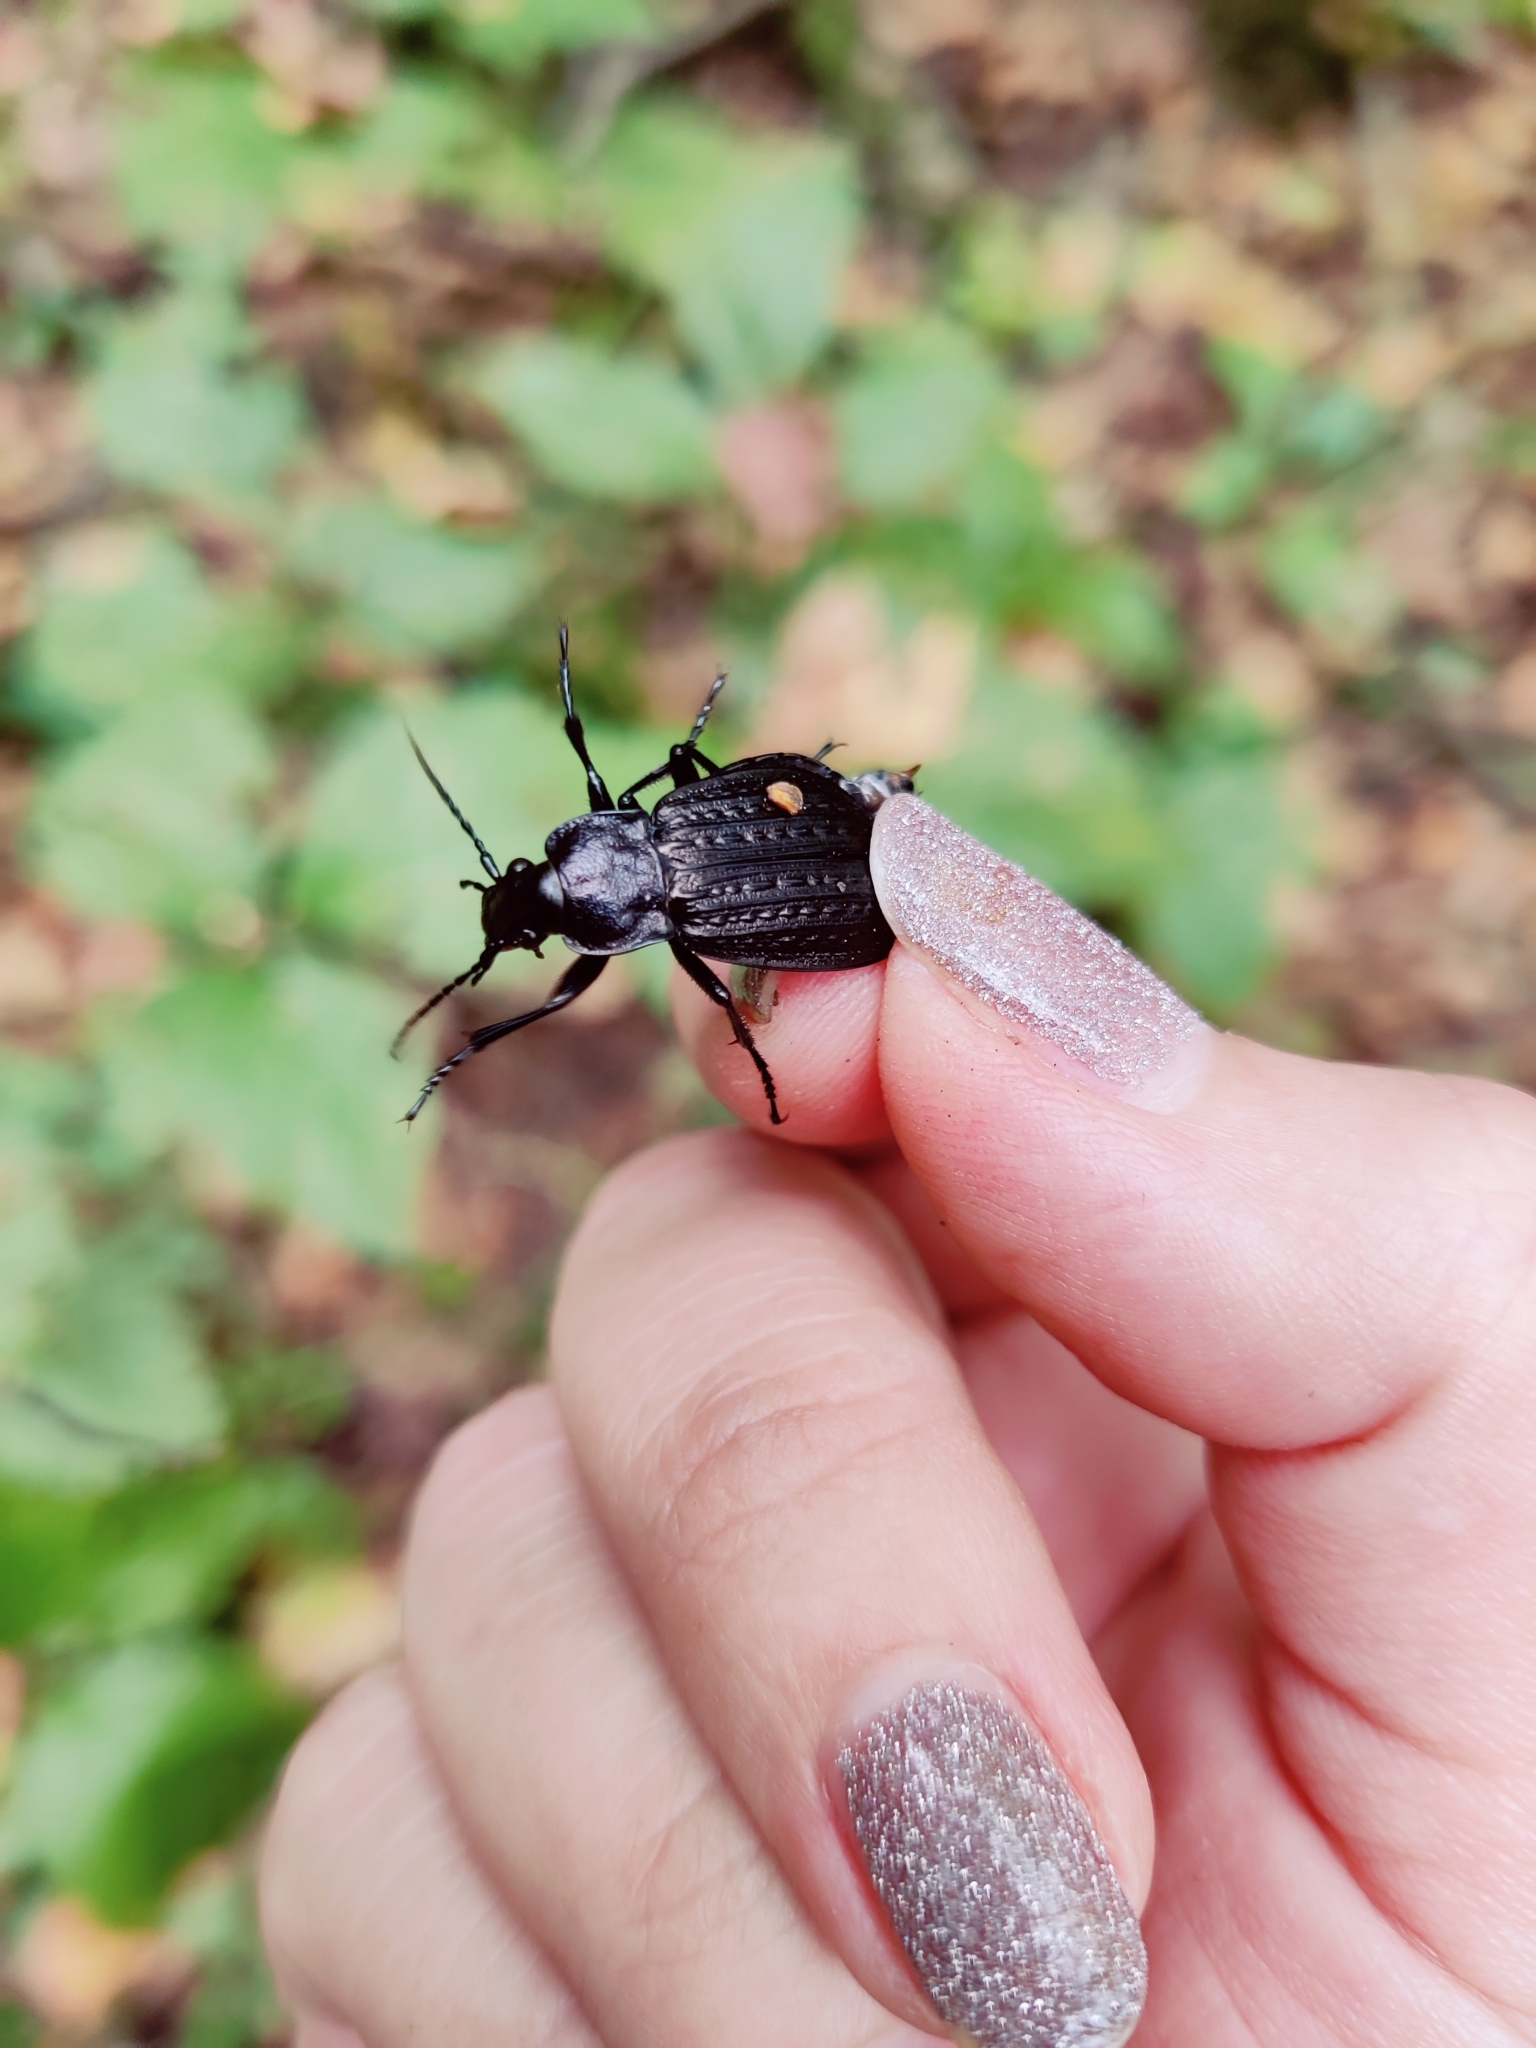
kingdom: Animalia
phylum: Arthropoda
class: Insecta
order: Coleoptera
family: Carabidae
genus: Carabus
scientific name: Carabus granulatus
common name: Granulate ground beetle
